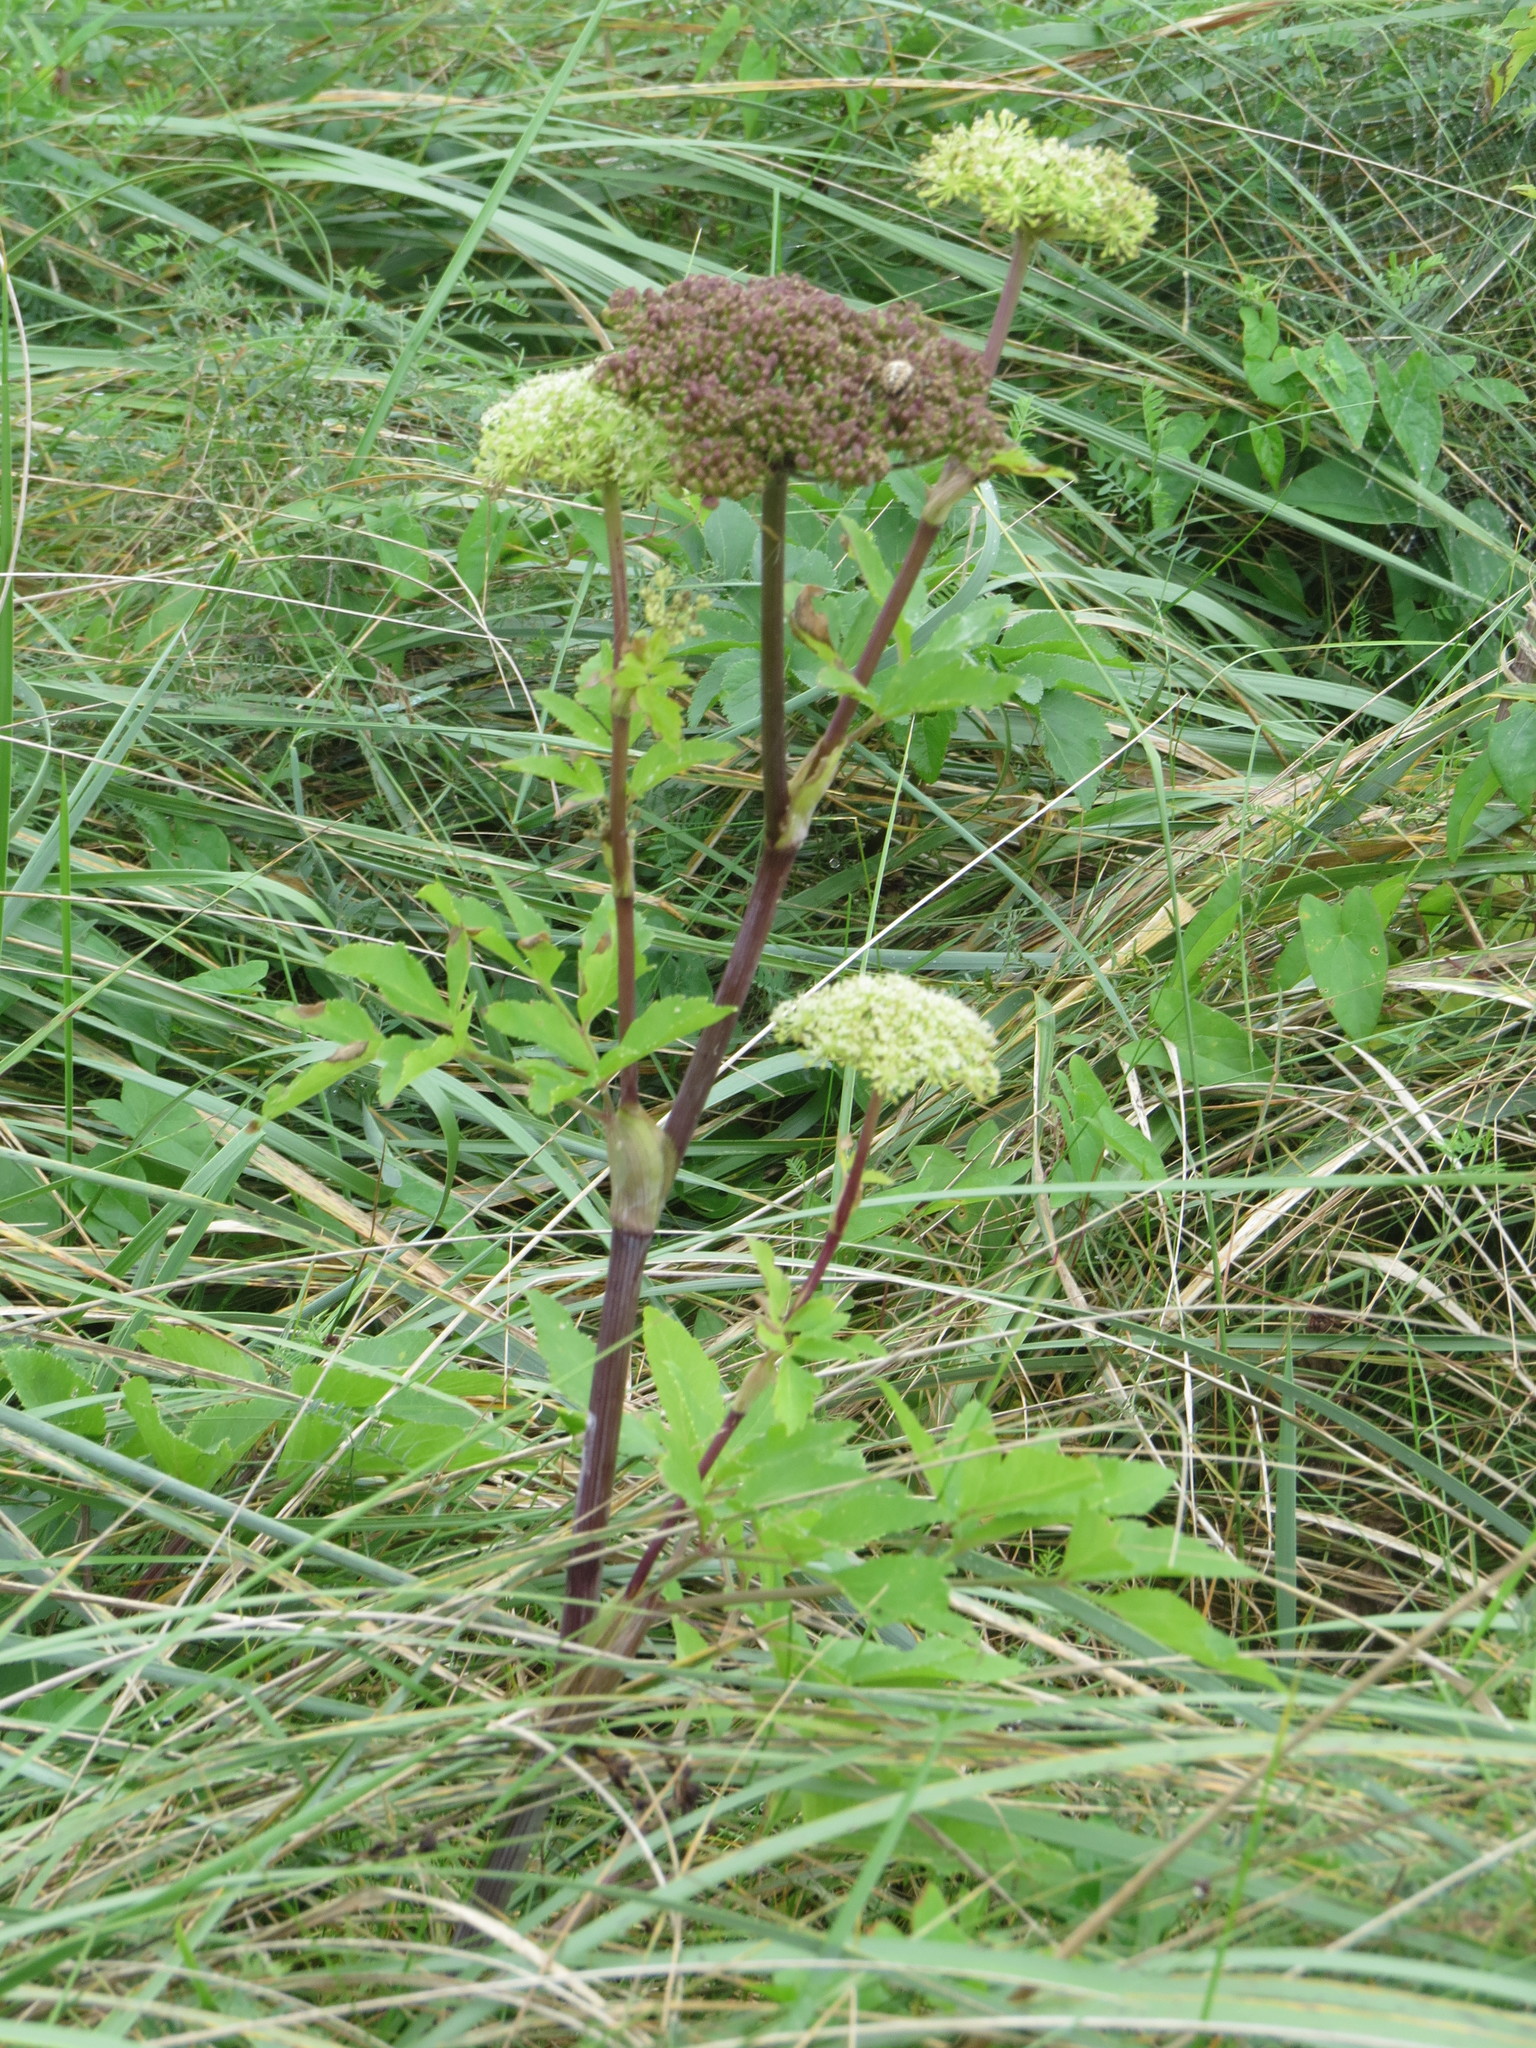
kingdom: Plantae
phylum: Tracheophyta
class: Magnoliopsida
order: Apiales
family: Apiaceae
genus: Angelica
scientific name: Angelica lucida
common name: Seabeach angelica
